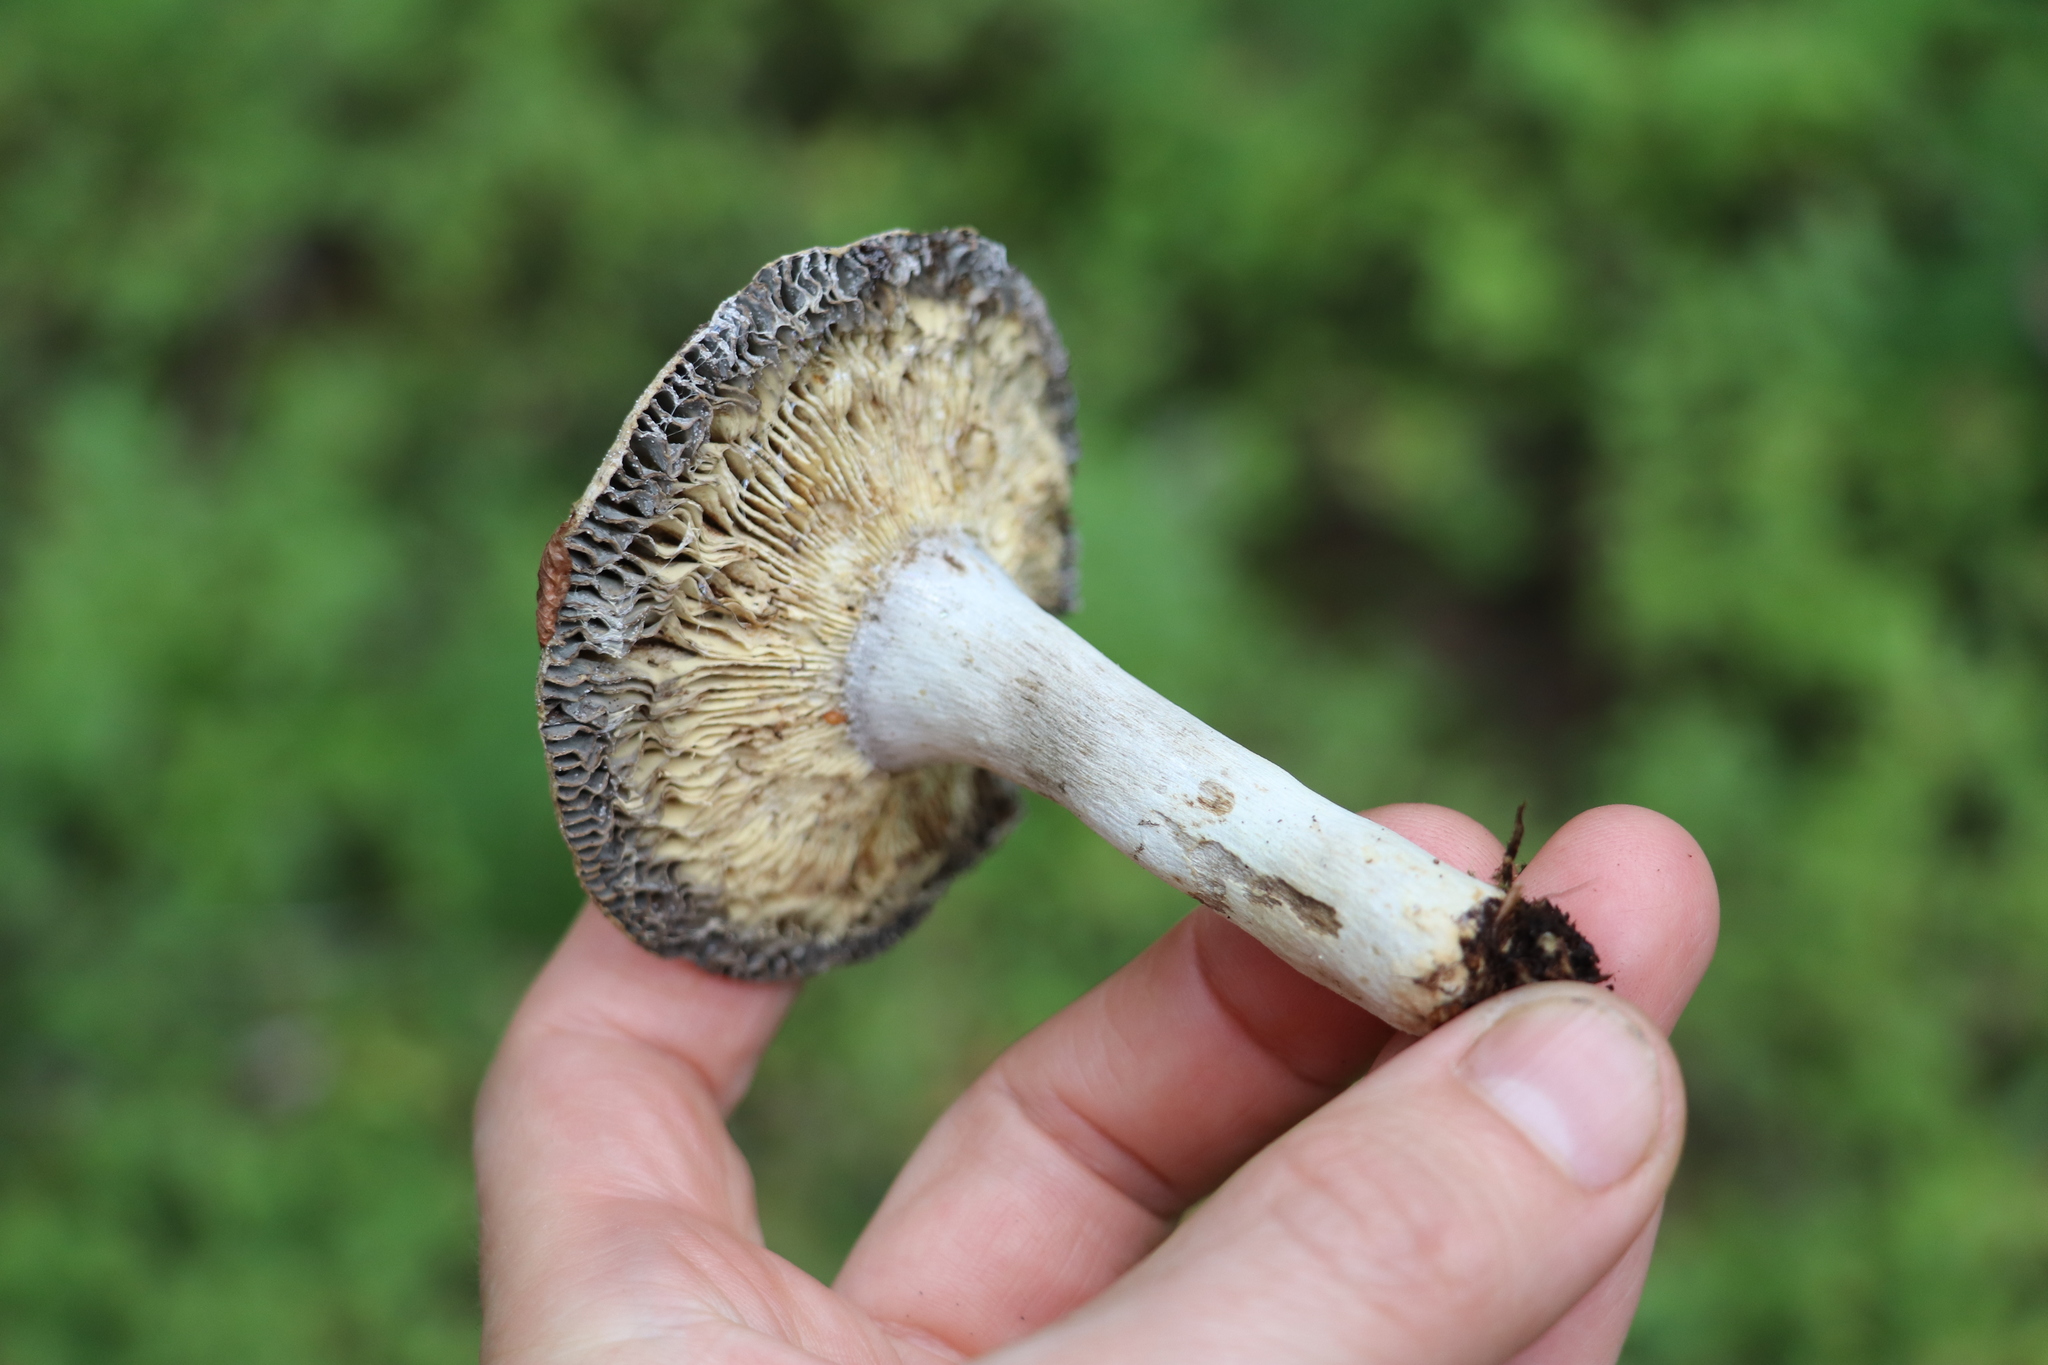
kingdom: Fungi
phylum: Basidiomycota
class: Agaricomycetes
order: Russulales
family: Russulaceae
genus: Russula
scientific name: Russula decolorans
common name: Copper brittlegill
